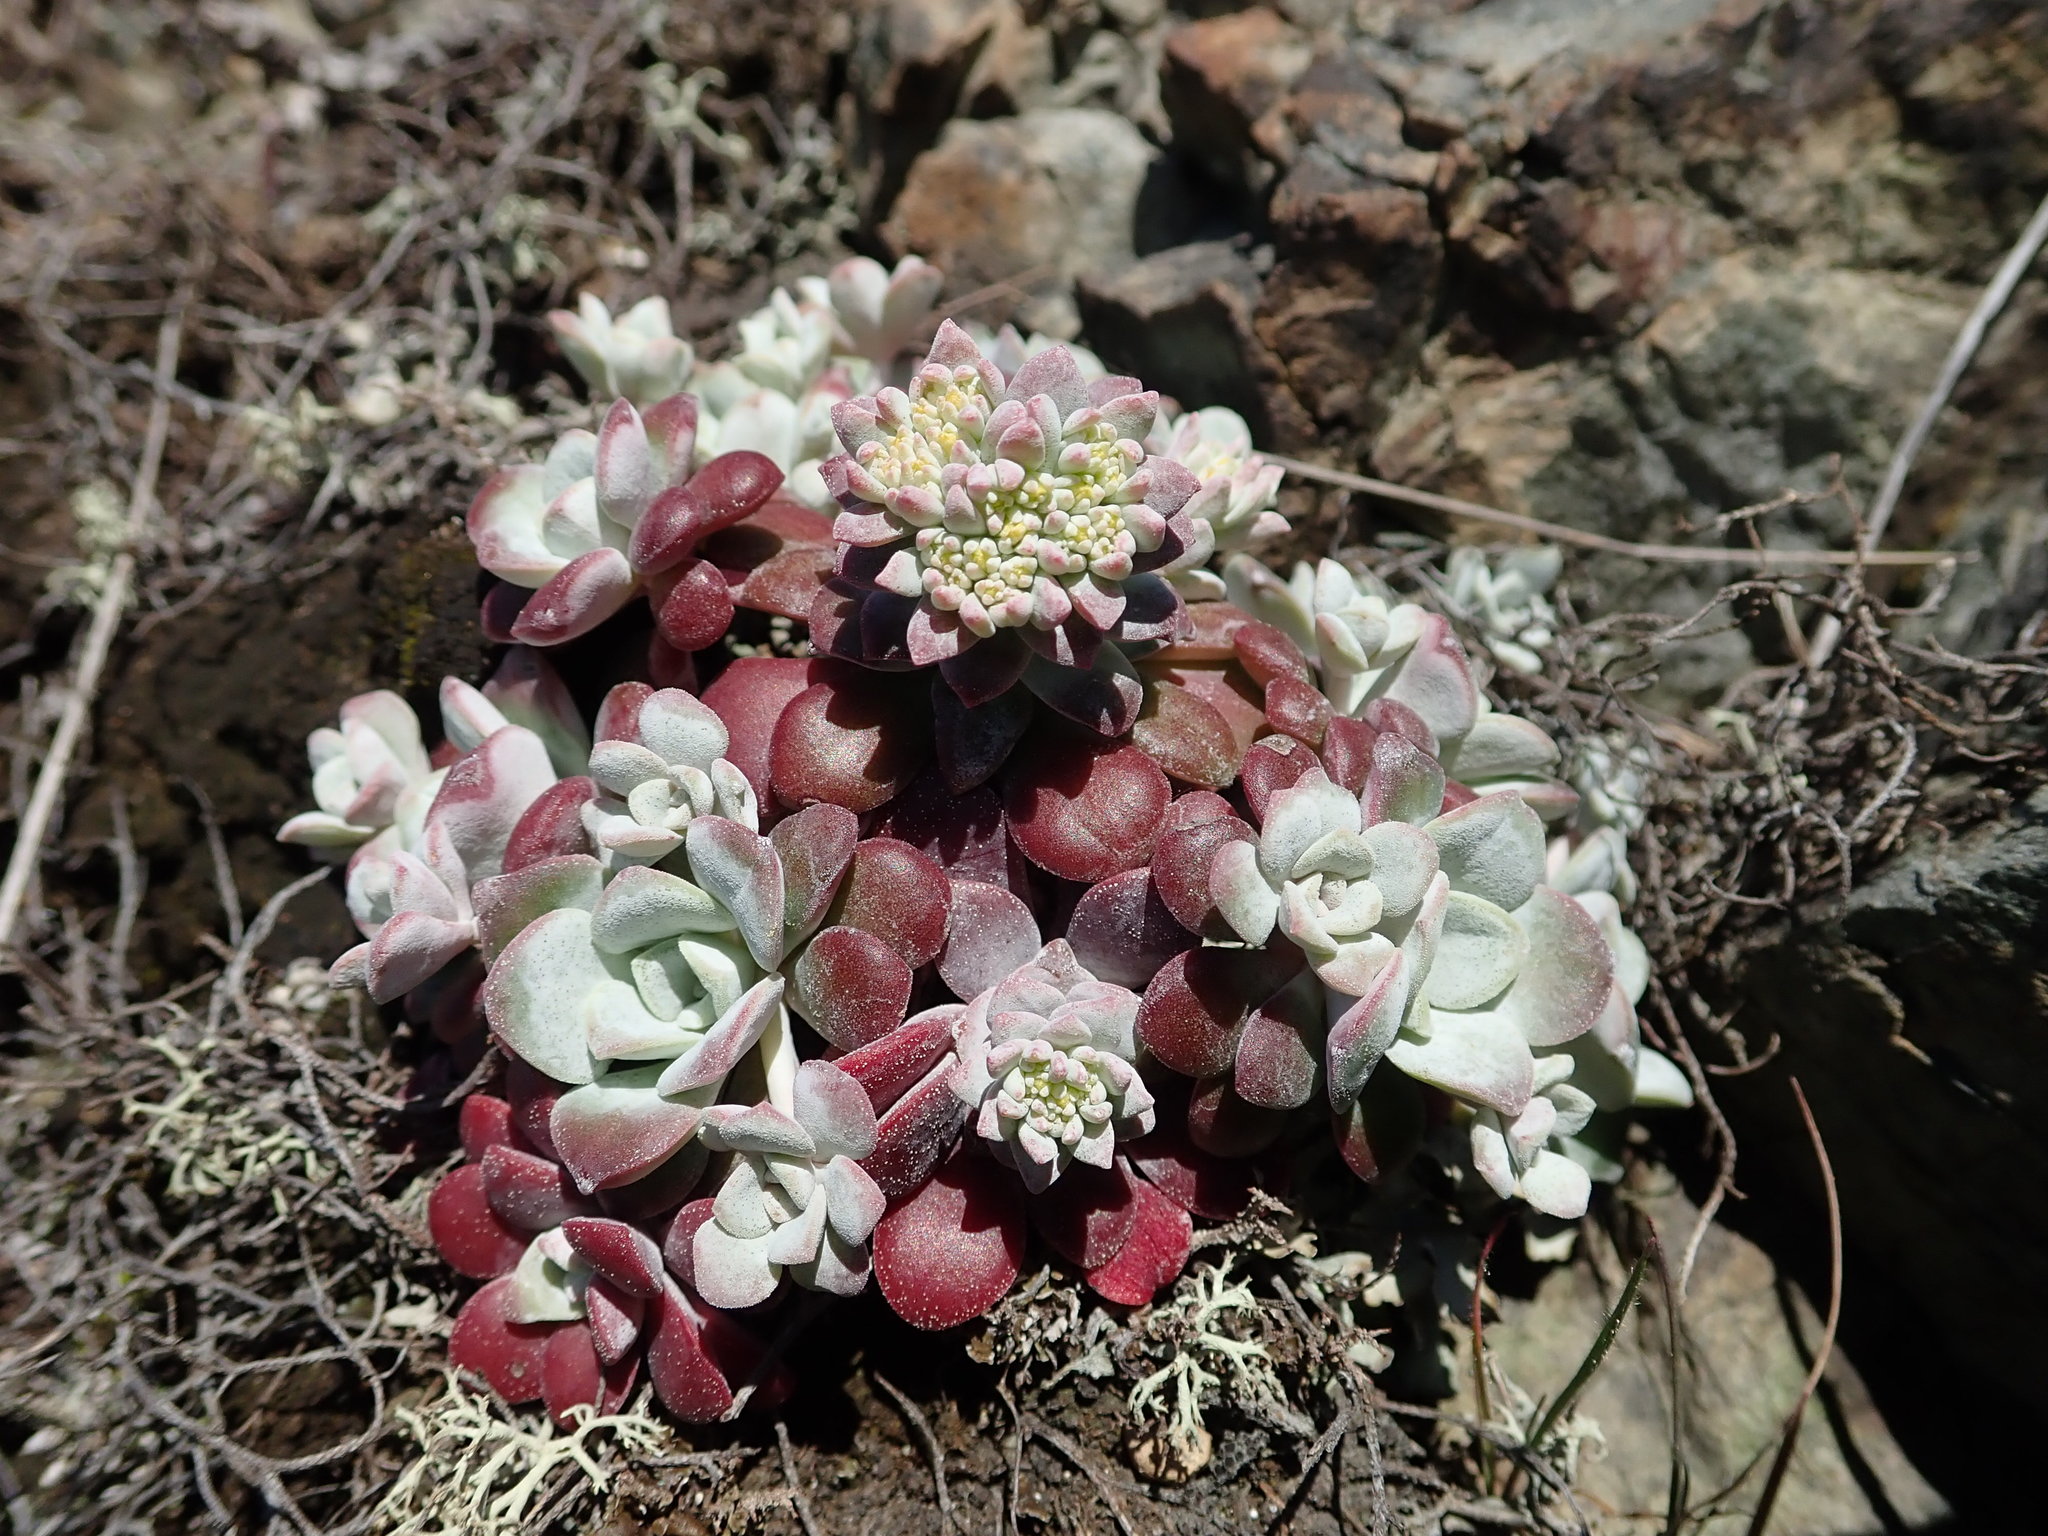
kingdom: Plantae
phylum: Tracheophyta
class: Magnoliopsida
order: Saxifragales
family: Crassulaceae
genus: Sedum
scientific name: Sedum spathulifolium
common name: Colorado stonecrop
